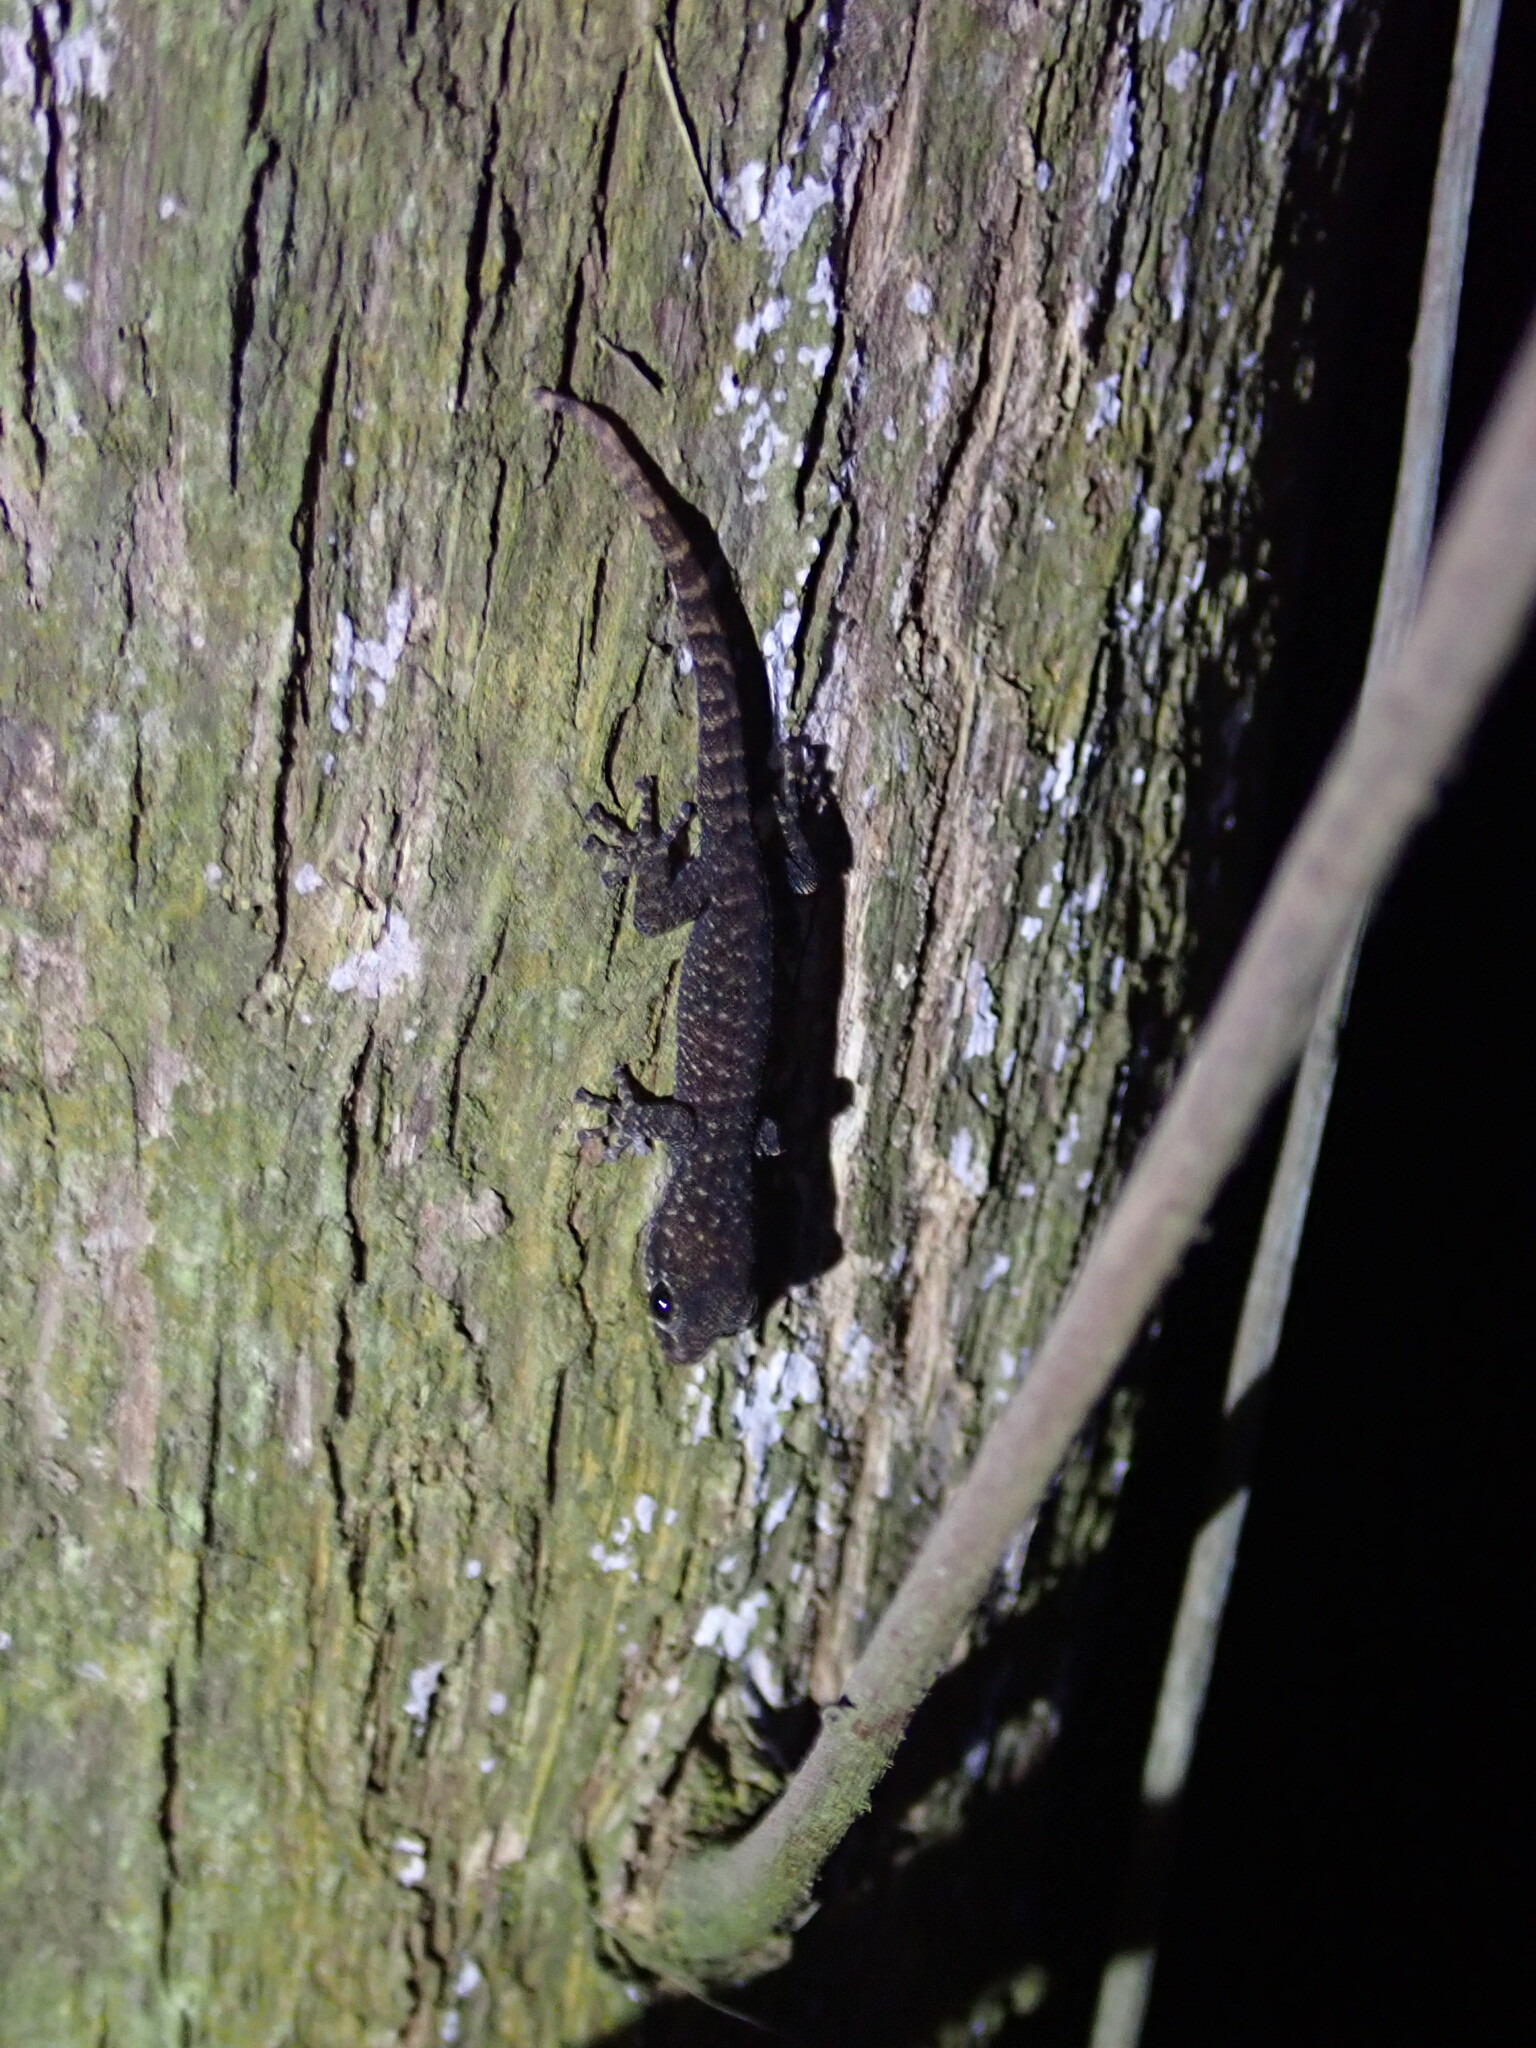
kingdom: Animalia
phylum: Chordata
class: Squamata
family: Phyllodactylidae
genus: Phyllodactylus
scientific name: Phyllodactylus insularis
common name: Belize leaf-toed gecko
